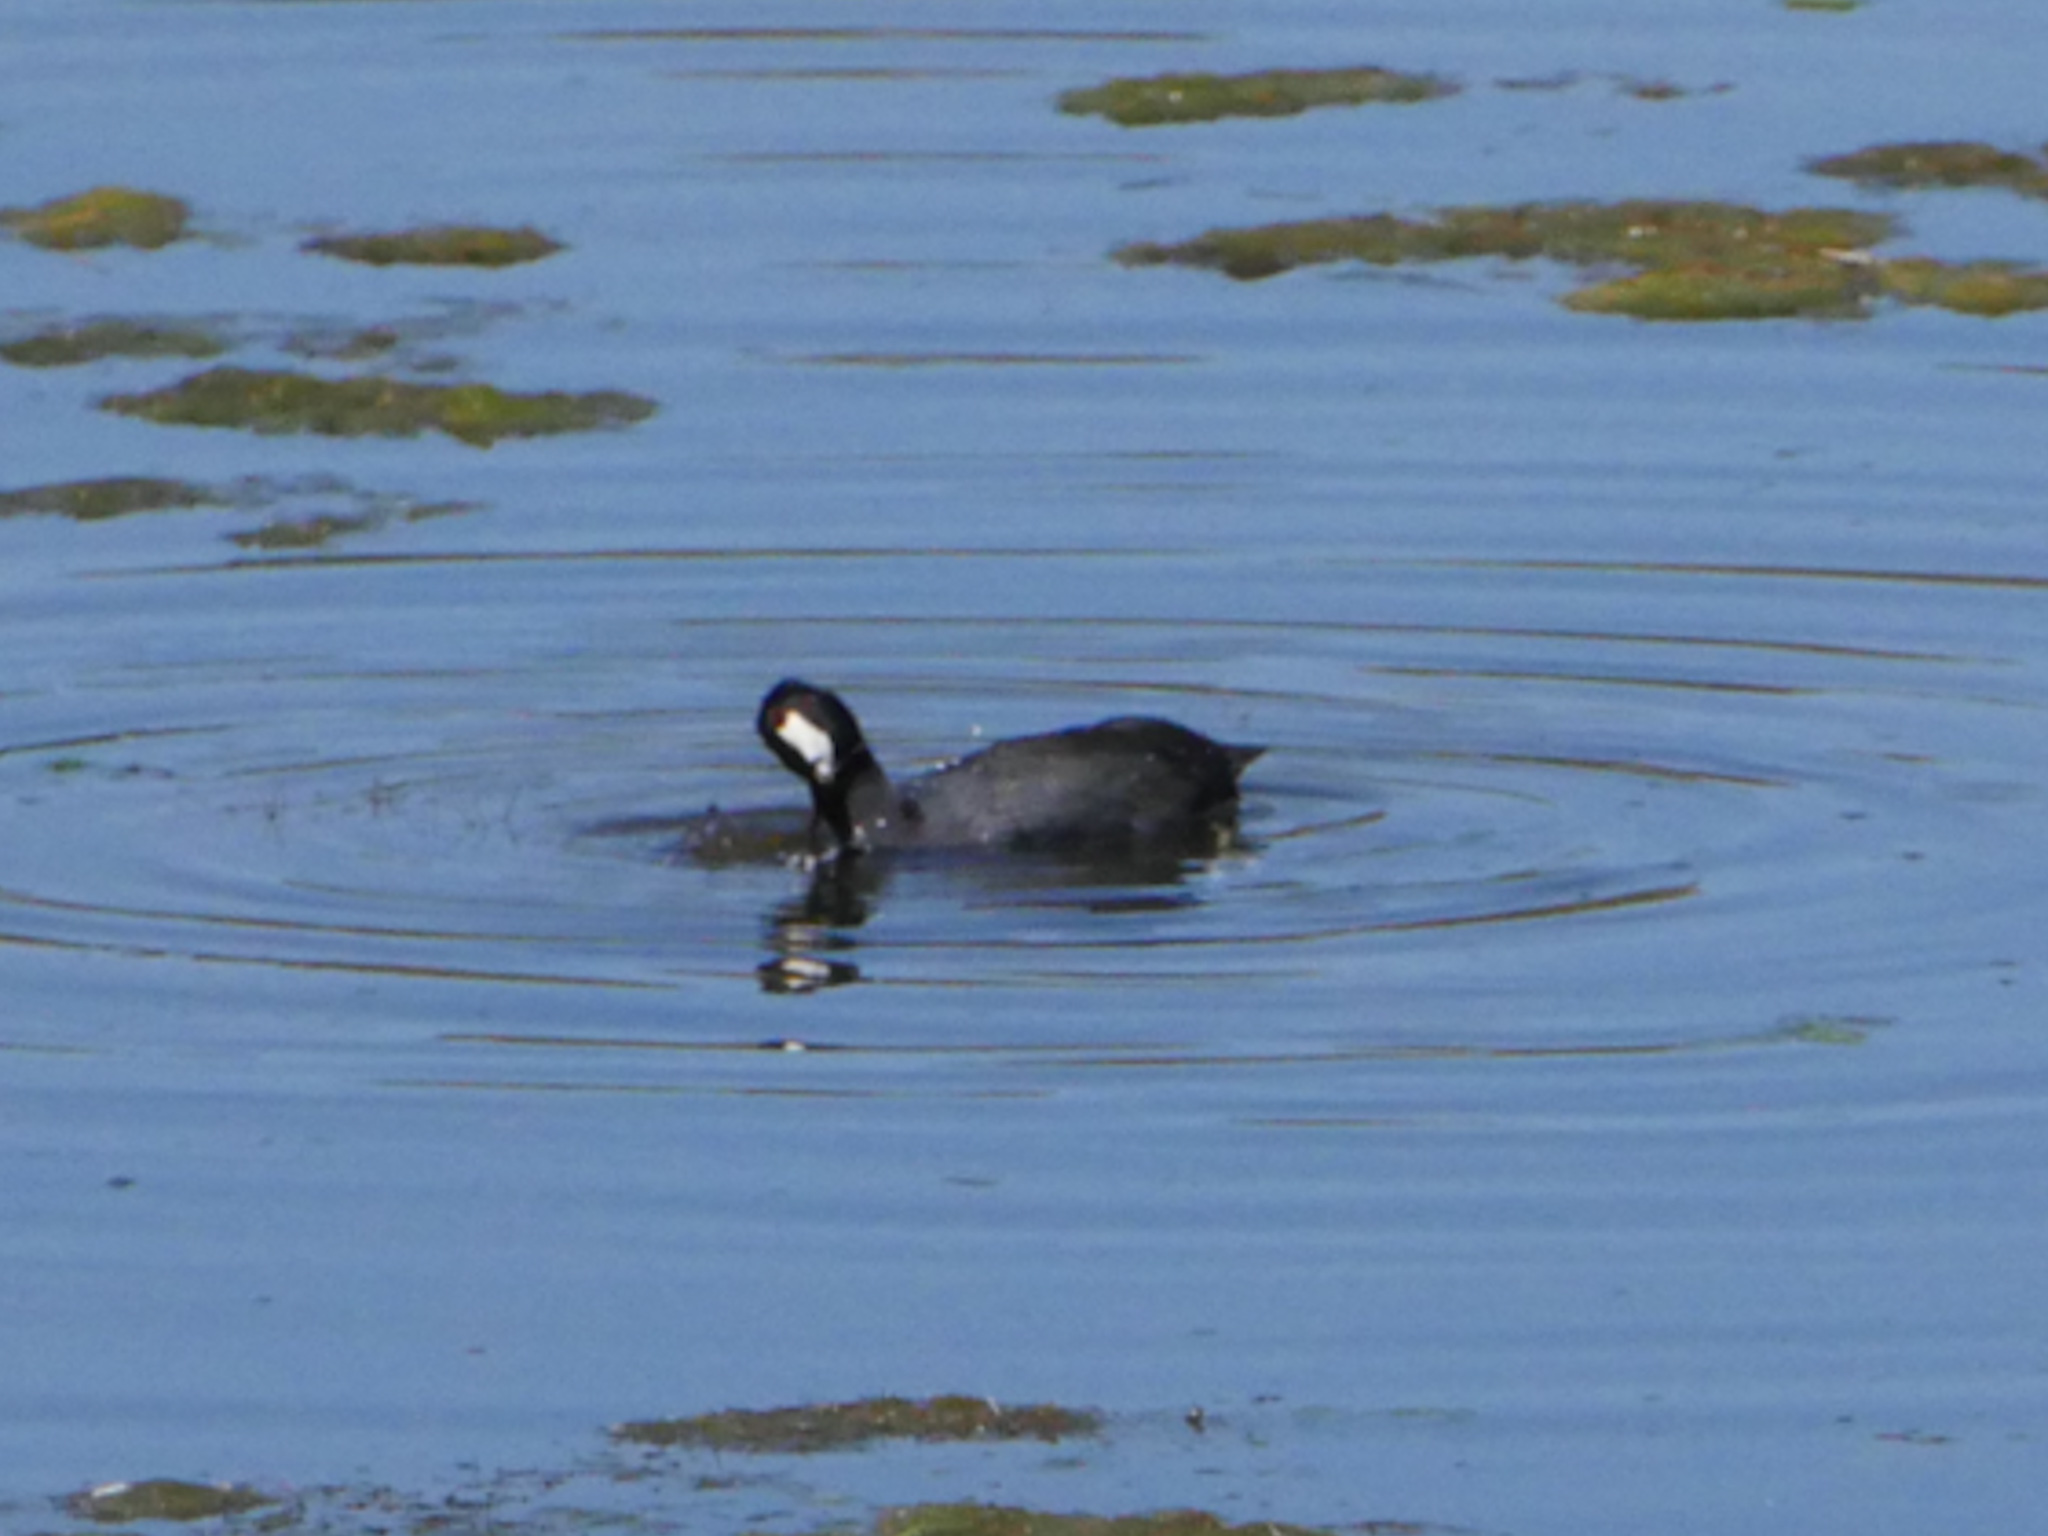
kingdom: Animalia
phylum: Chordata
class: Aves
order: Gruiformes
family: Rallidae
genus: Fulica
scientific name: Fulica americana
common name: American coot
